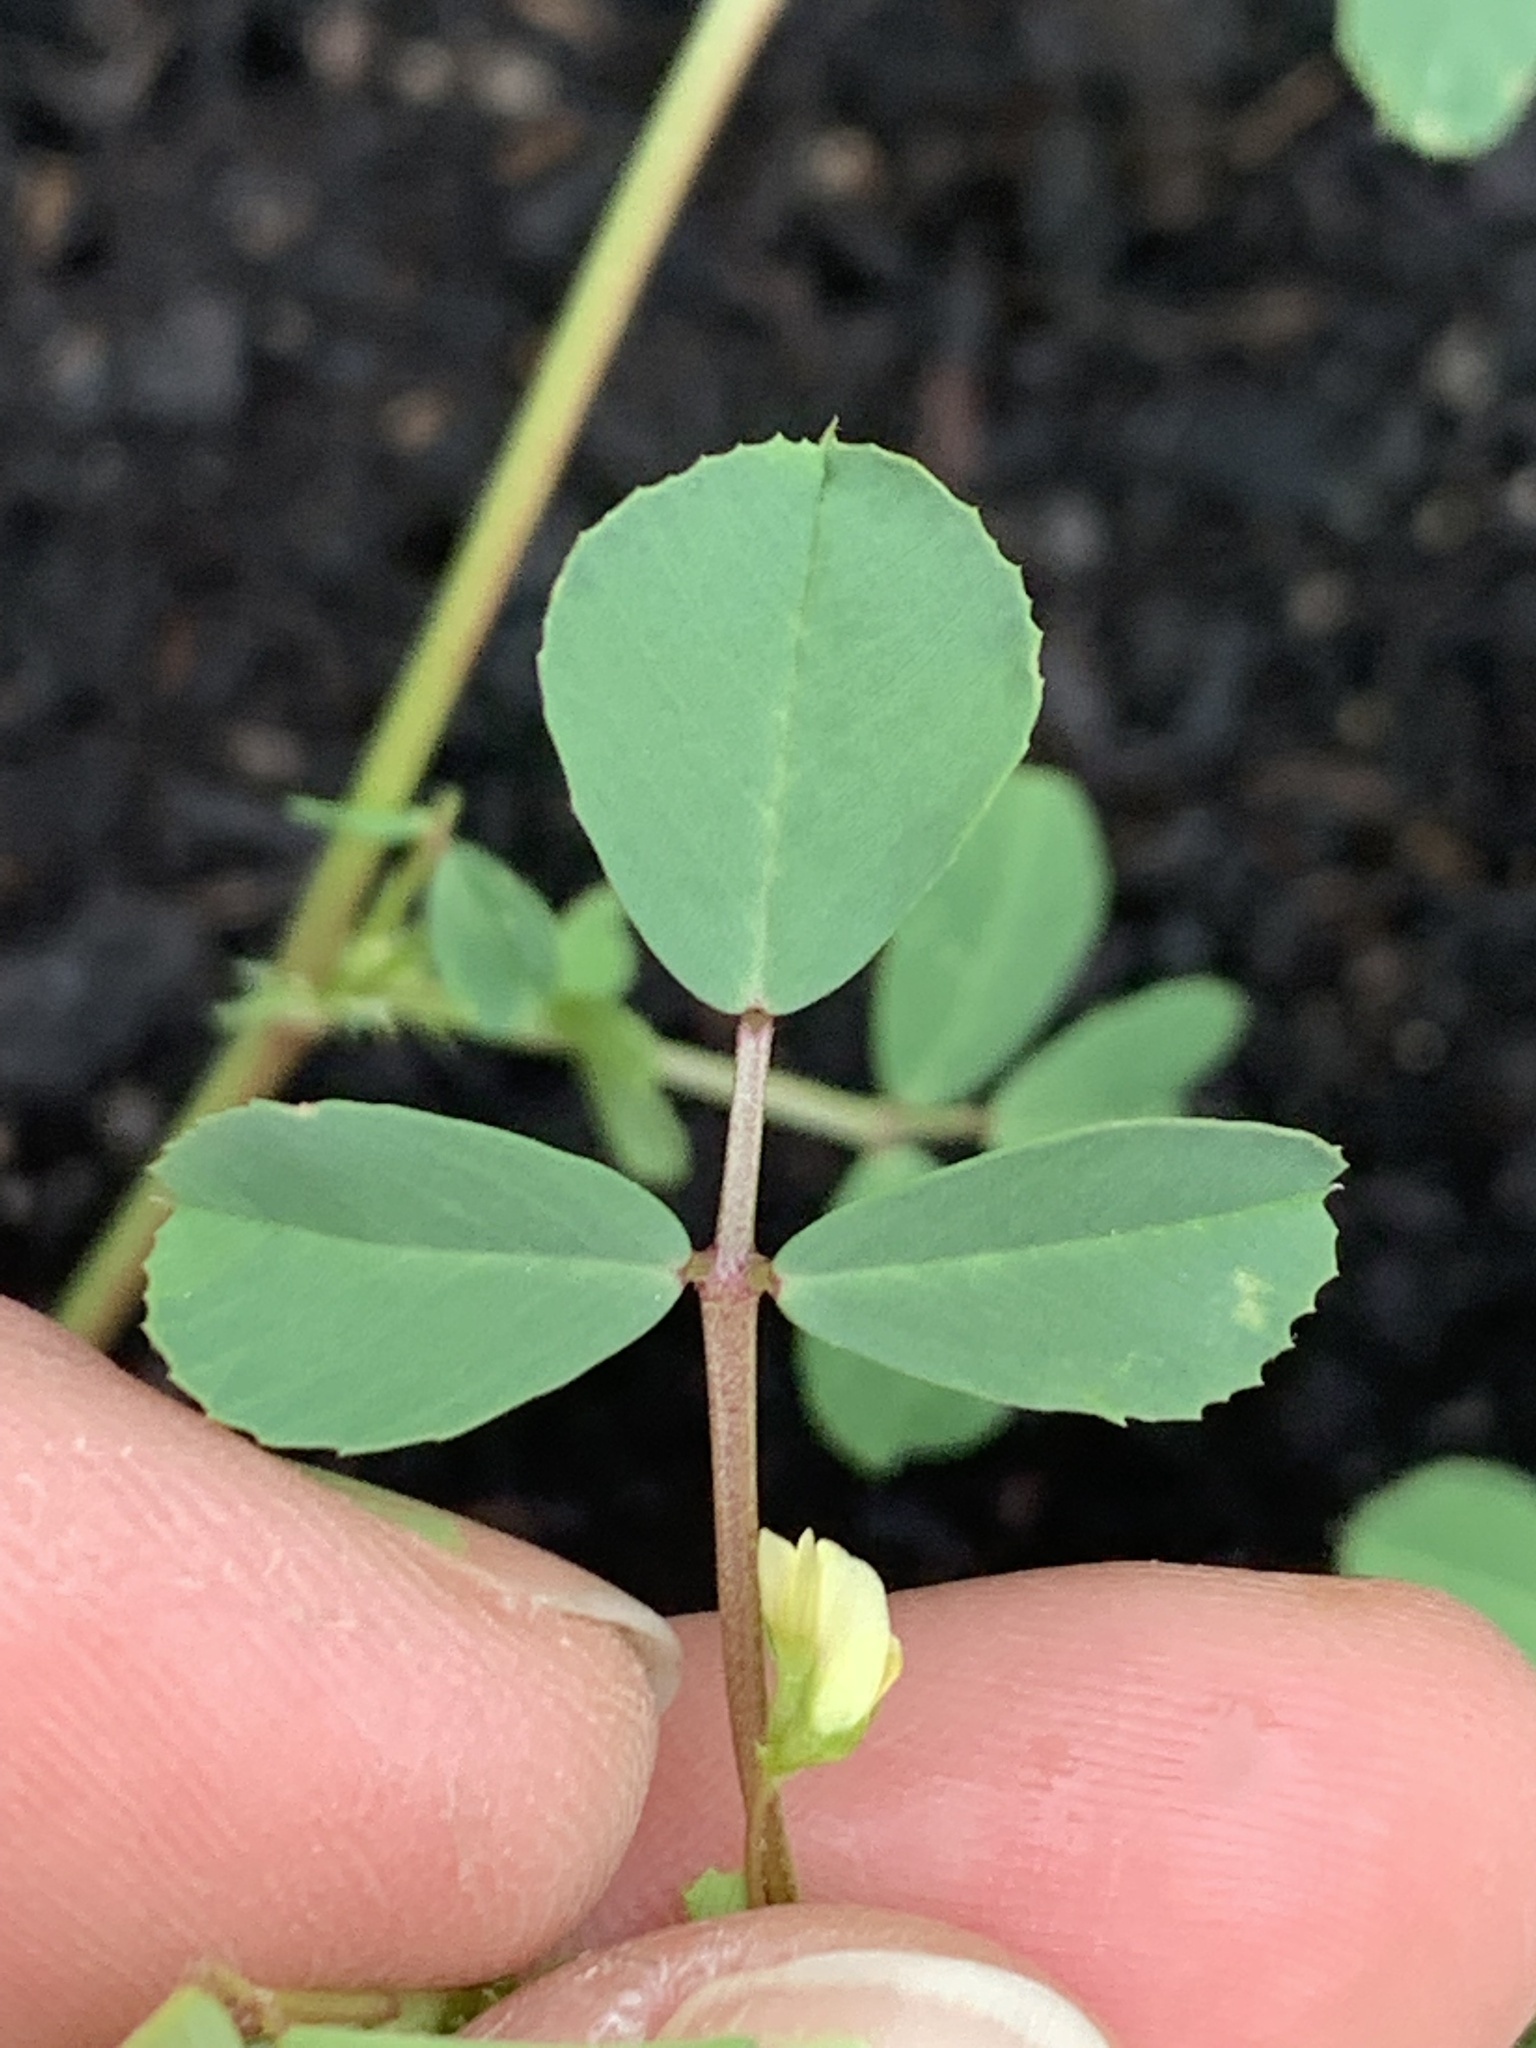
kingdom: Plantae
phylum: Tracheophyta
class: Magnoliopsida
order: Fabales
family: Fabaceae
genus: Medicago
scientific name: Medicago polymorpha
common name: Burclover
